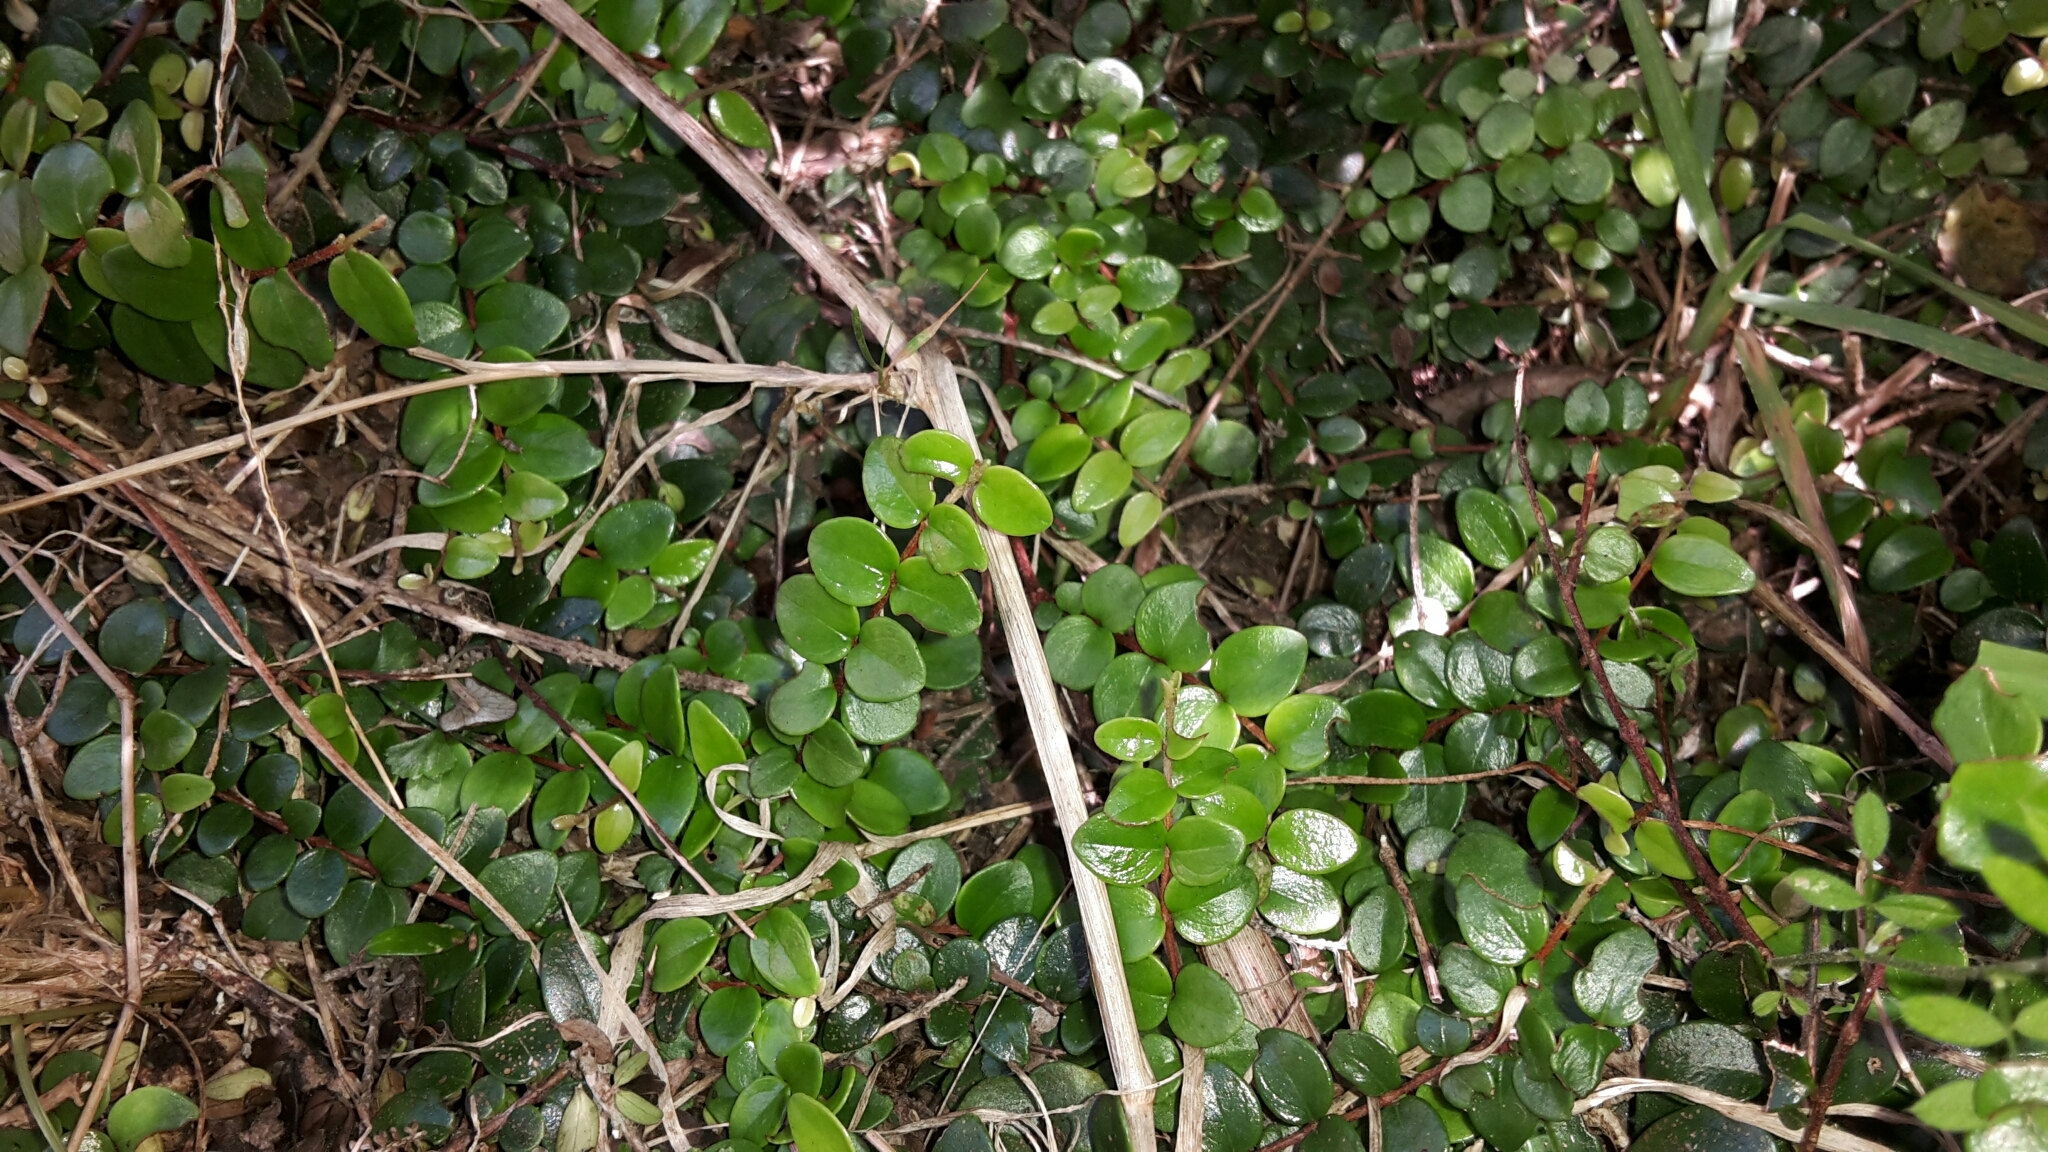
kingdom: Plantae
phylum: Tracheophyta
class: Magnoliopsida
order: Myrtales
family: Myrtaceae
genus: Metrosideros
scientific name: Metrosideros perforata
